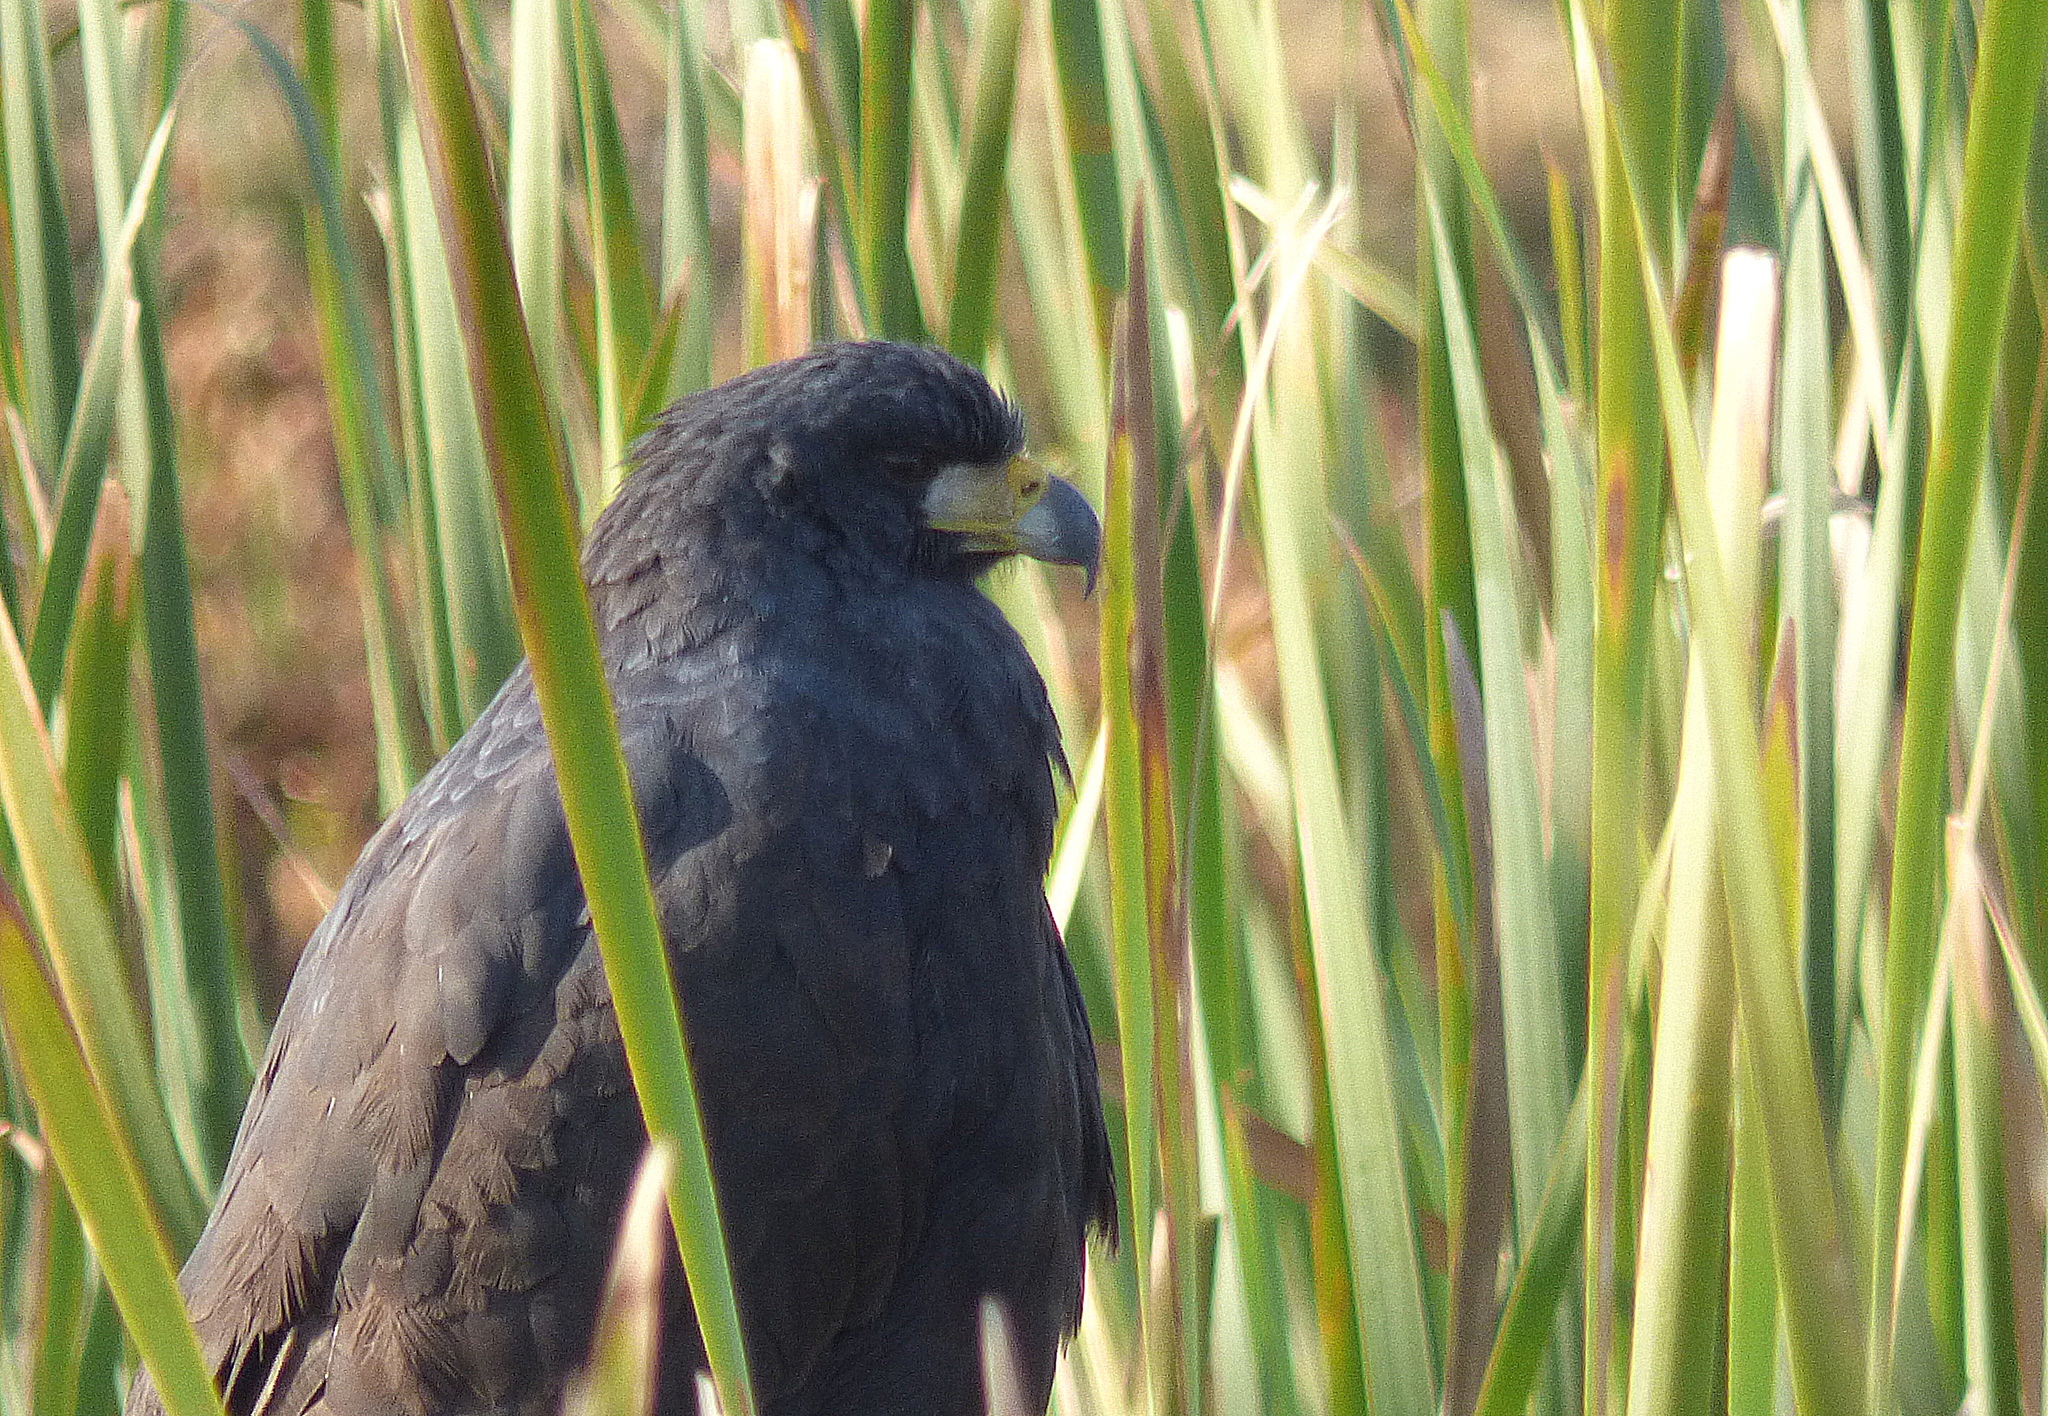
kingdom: Animalia
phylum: Chordata
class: Aves
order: Accipitriformes
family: Accipitridae
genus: Buteogallus
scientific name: Buteogallus urubitinga
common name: Great black hawk
